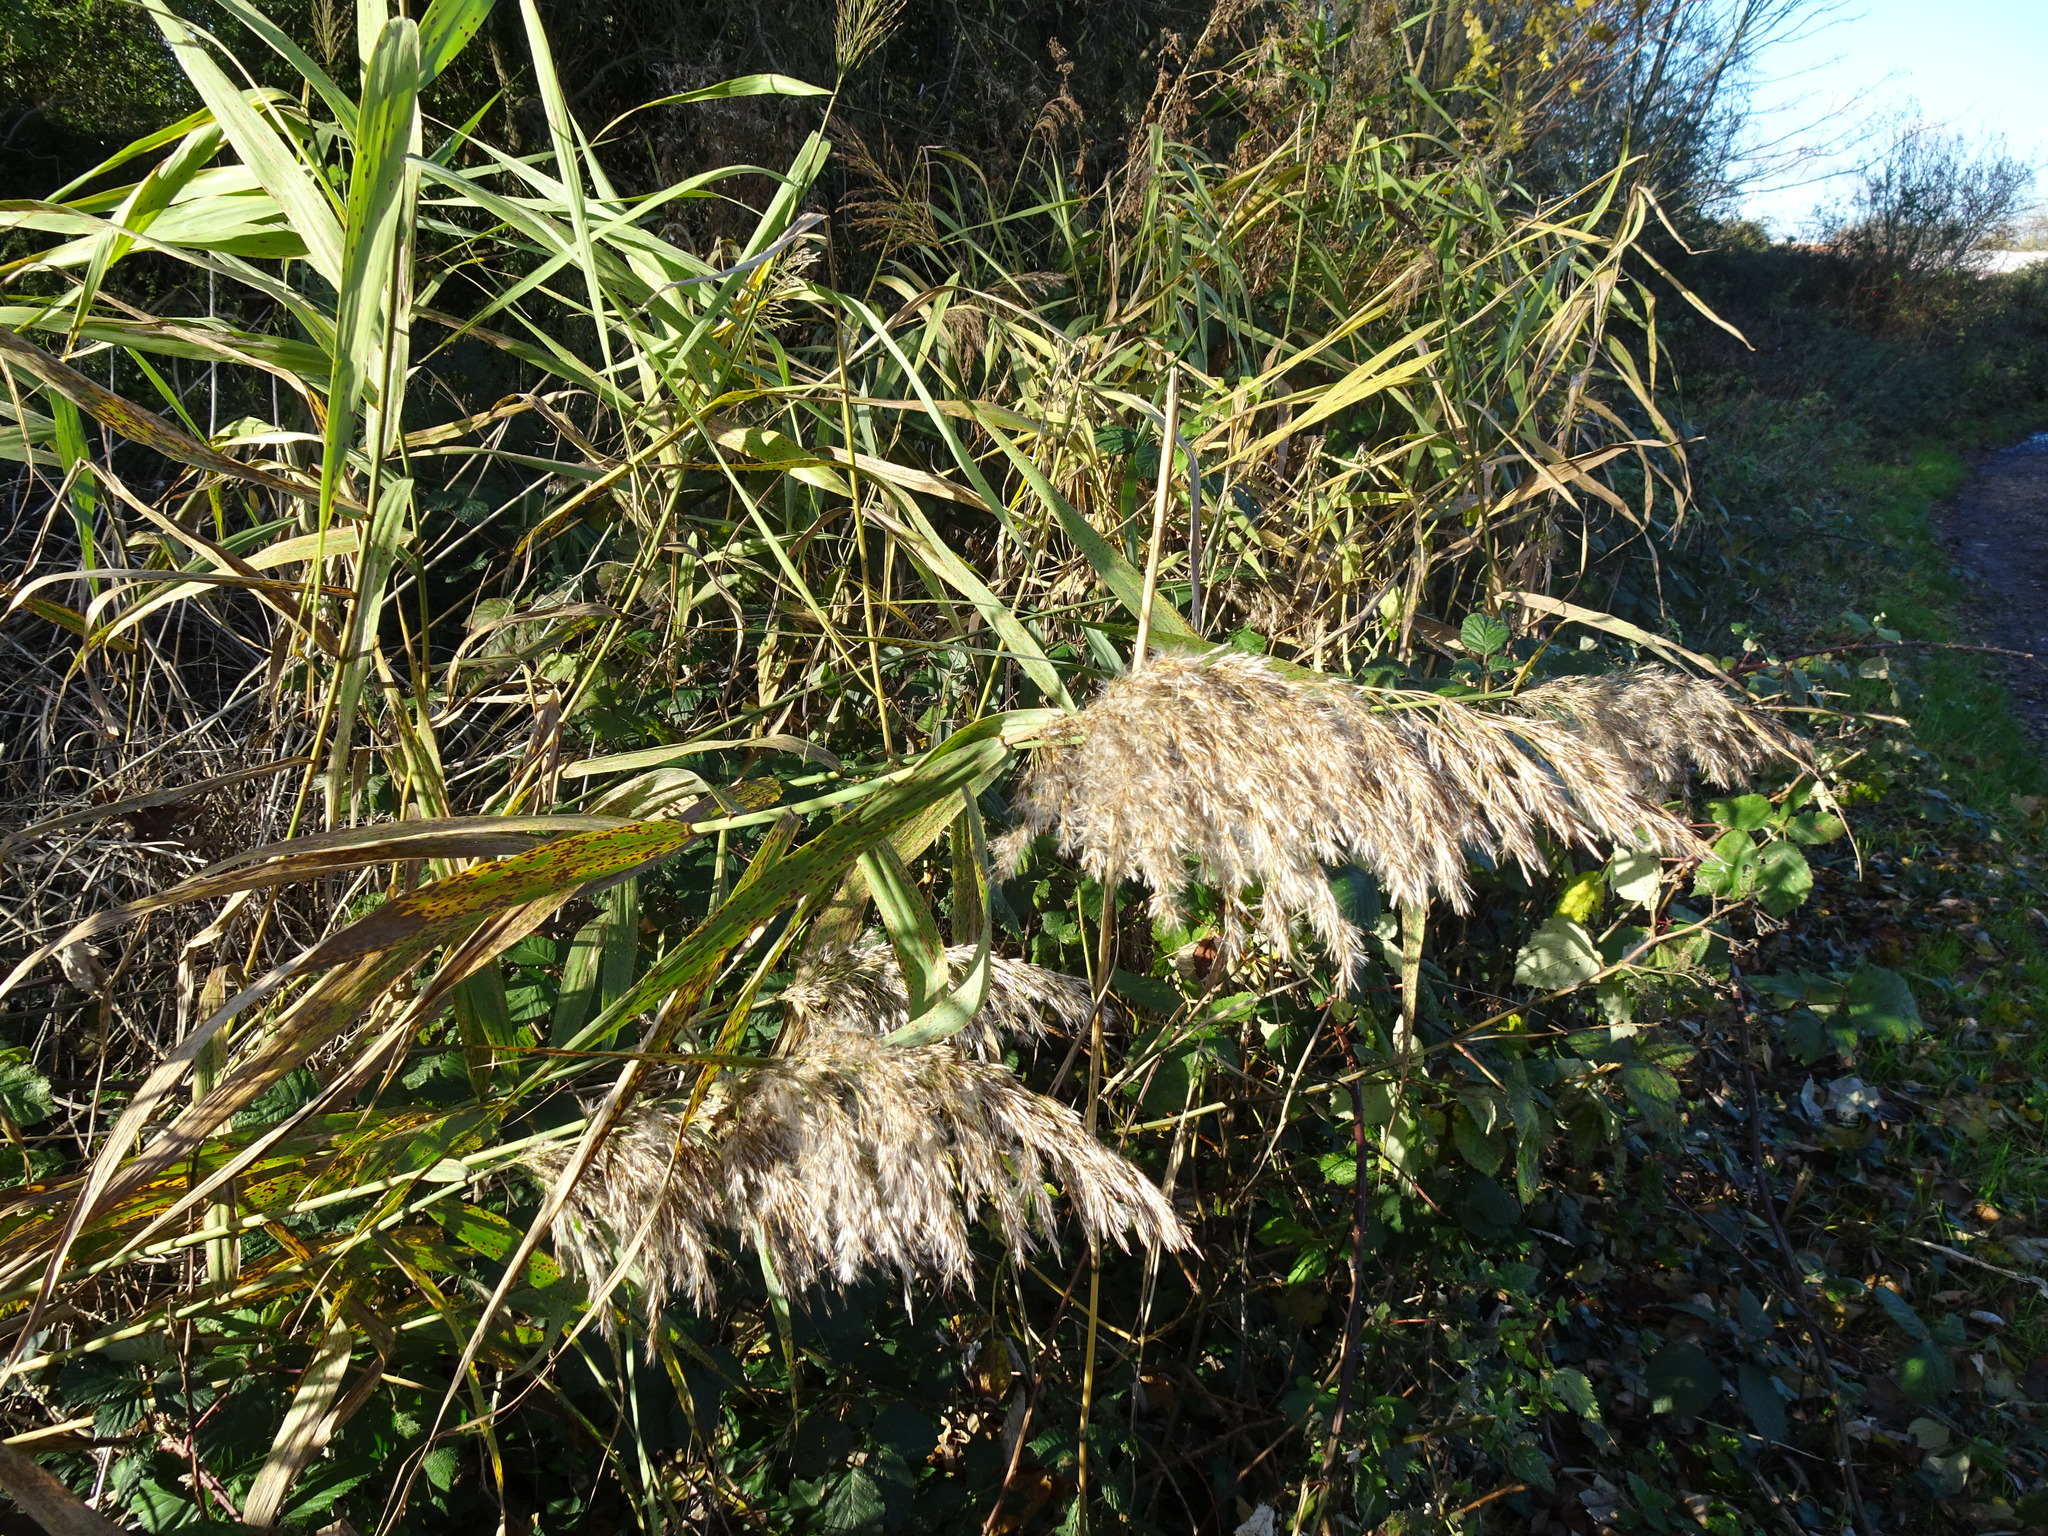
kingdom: Plantae
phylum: Tracheophyta
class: Liliopsida
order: Poales
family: Poaceae
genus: Phragmites
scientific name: Phragmites australis
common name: Common reed
